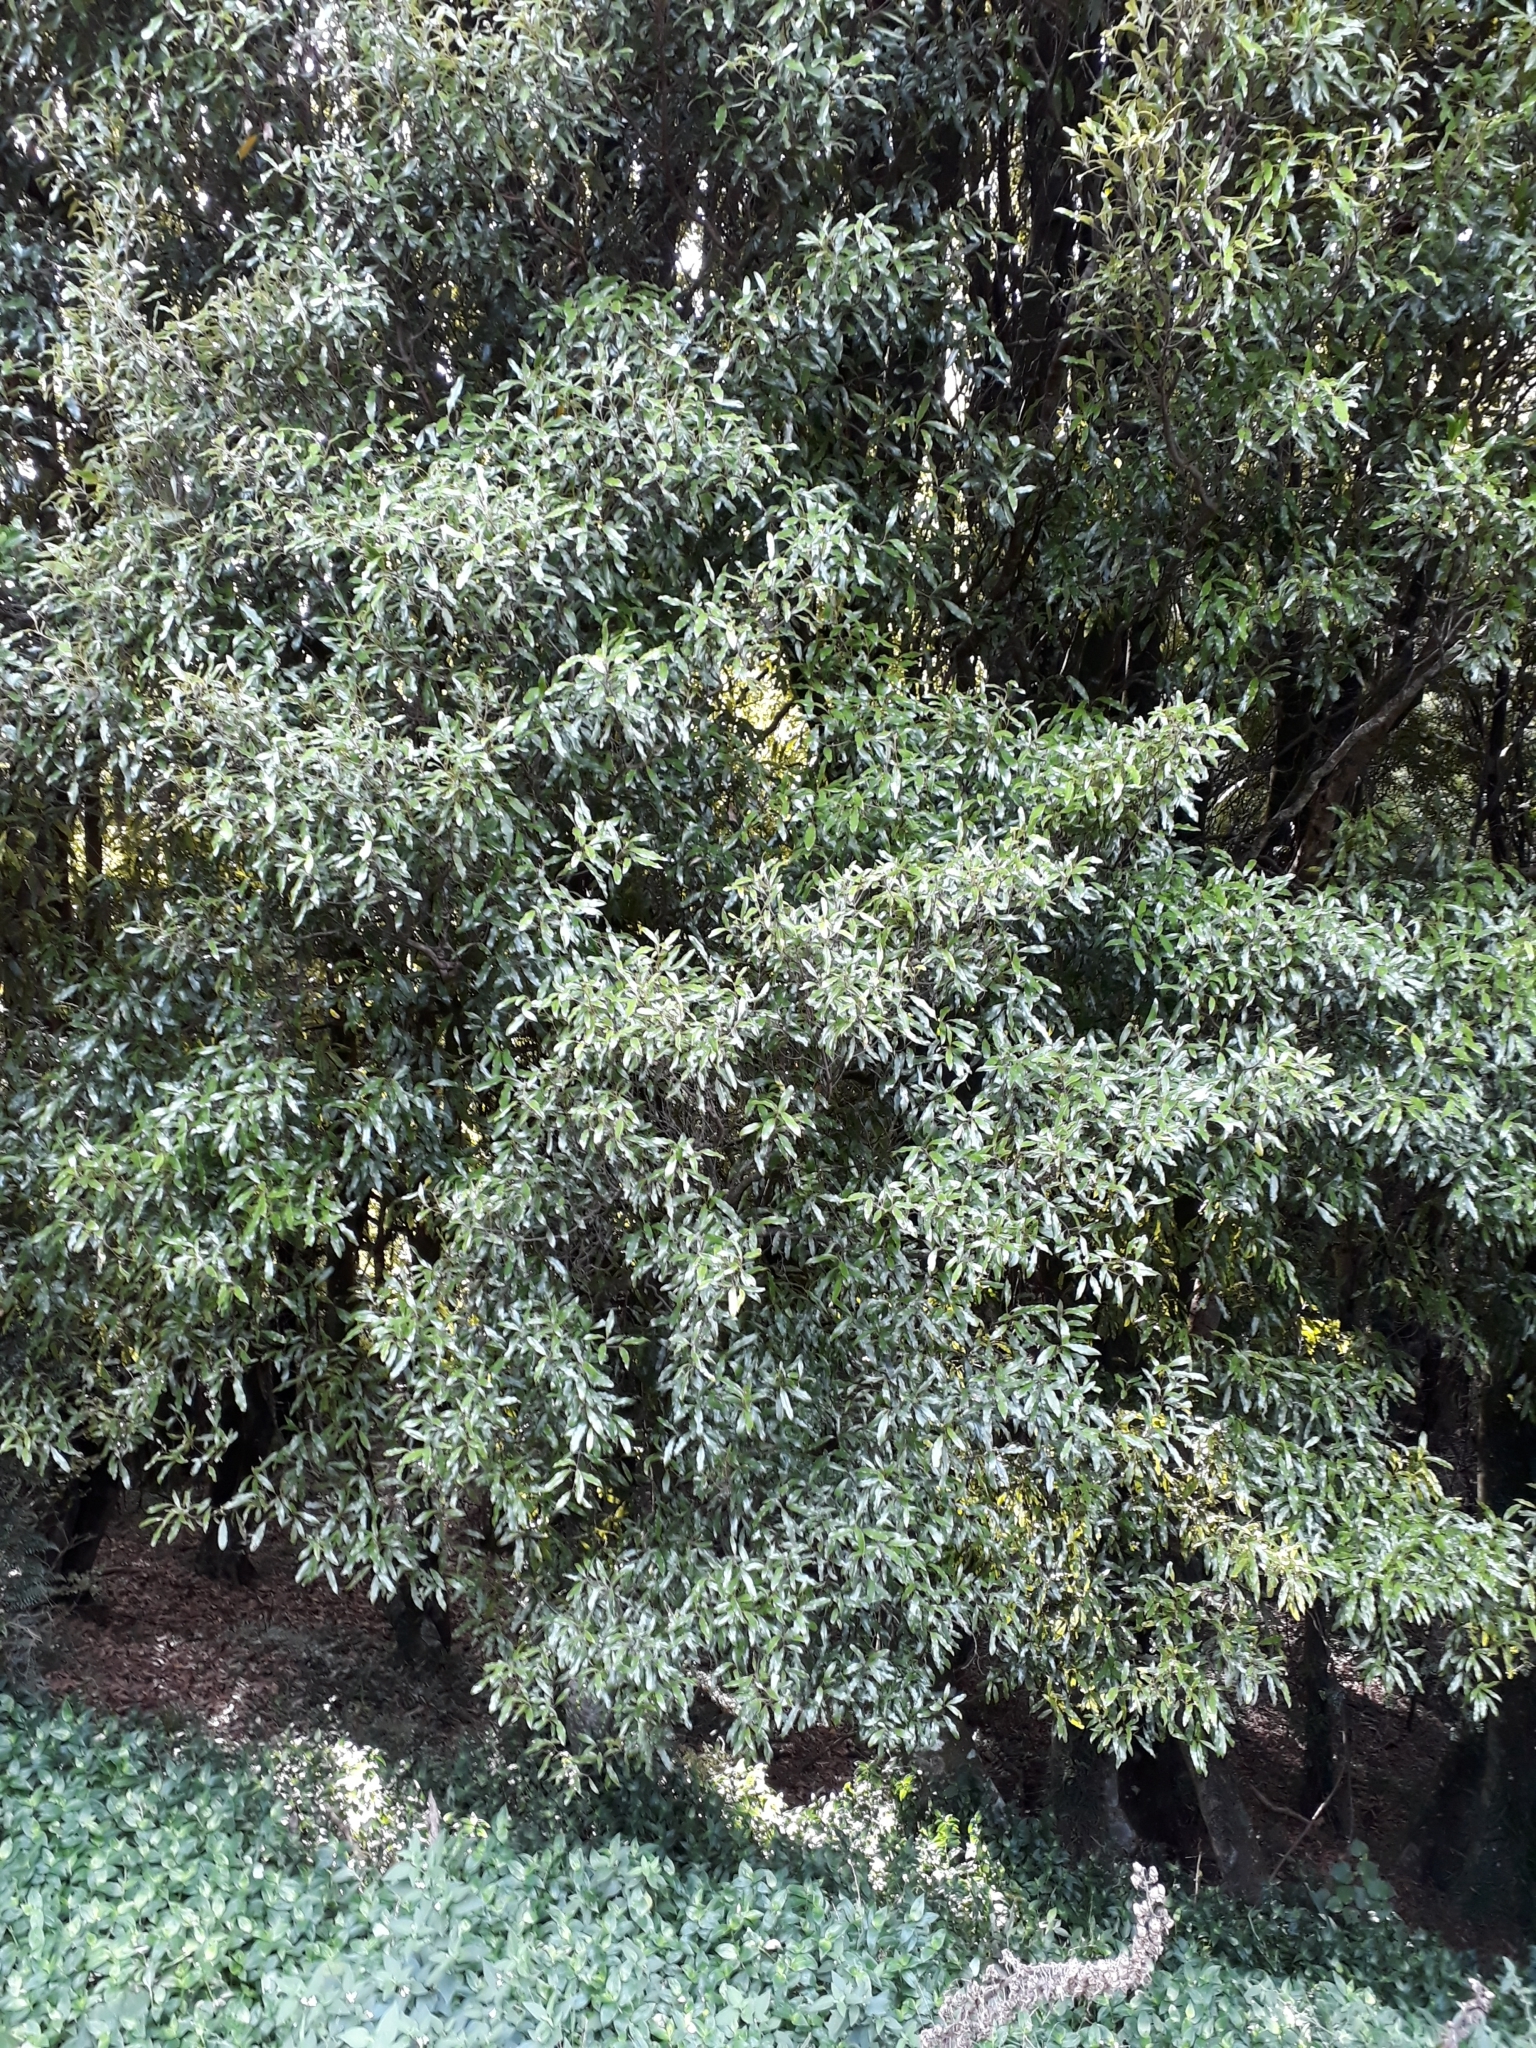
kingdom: Plantae
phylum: Tracheophyta
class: Magnoliopsida
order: Laurales
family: Lauraceae
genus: Beilschmiedia
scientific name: Beilschmiedia tawa
